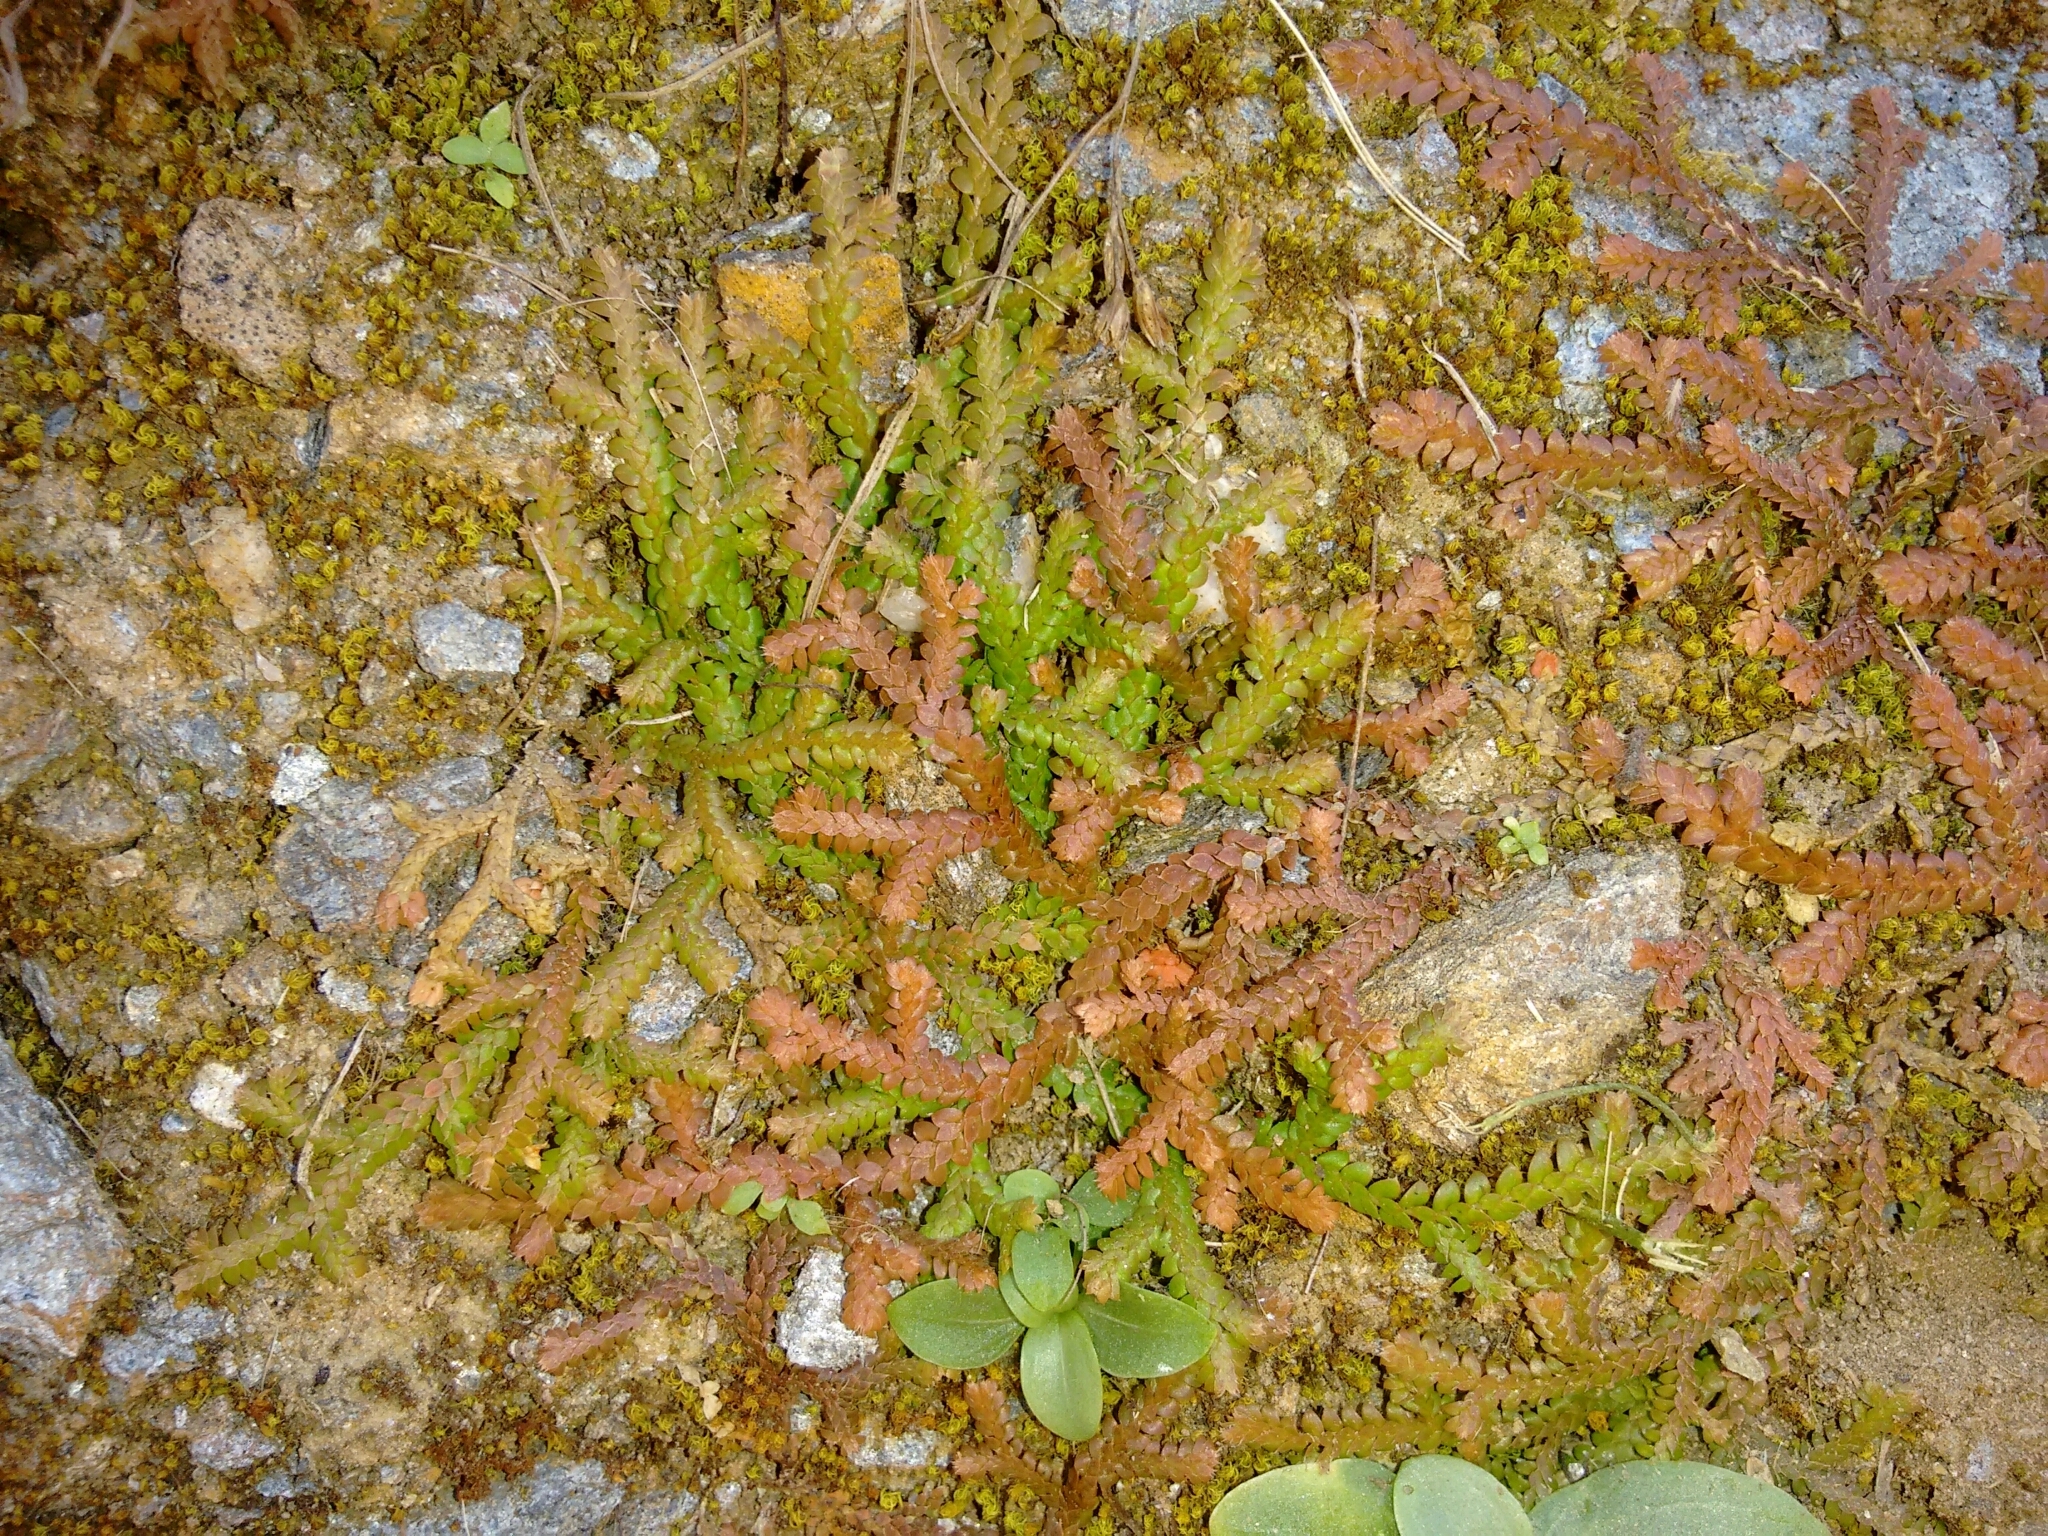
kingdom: Plantae
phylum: Tracheophyta
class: Lycopodiopsida
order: Selaginellales
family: Selaginellaceae
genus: Selaginella
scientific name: Selaginella denticulata
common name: Toothed-leaved clubmoss
